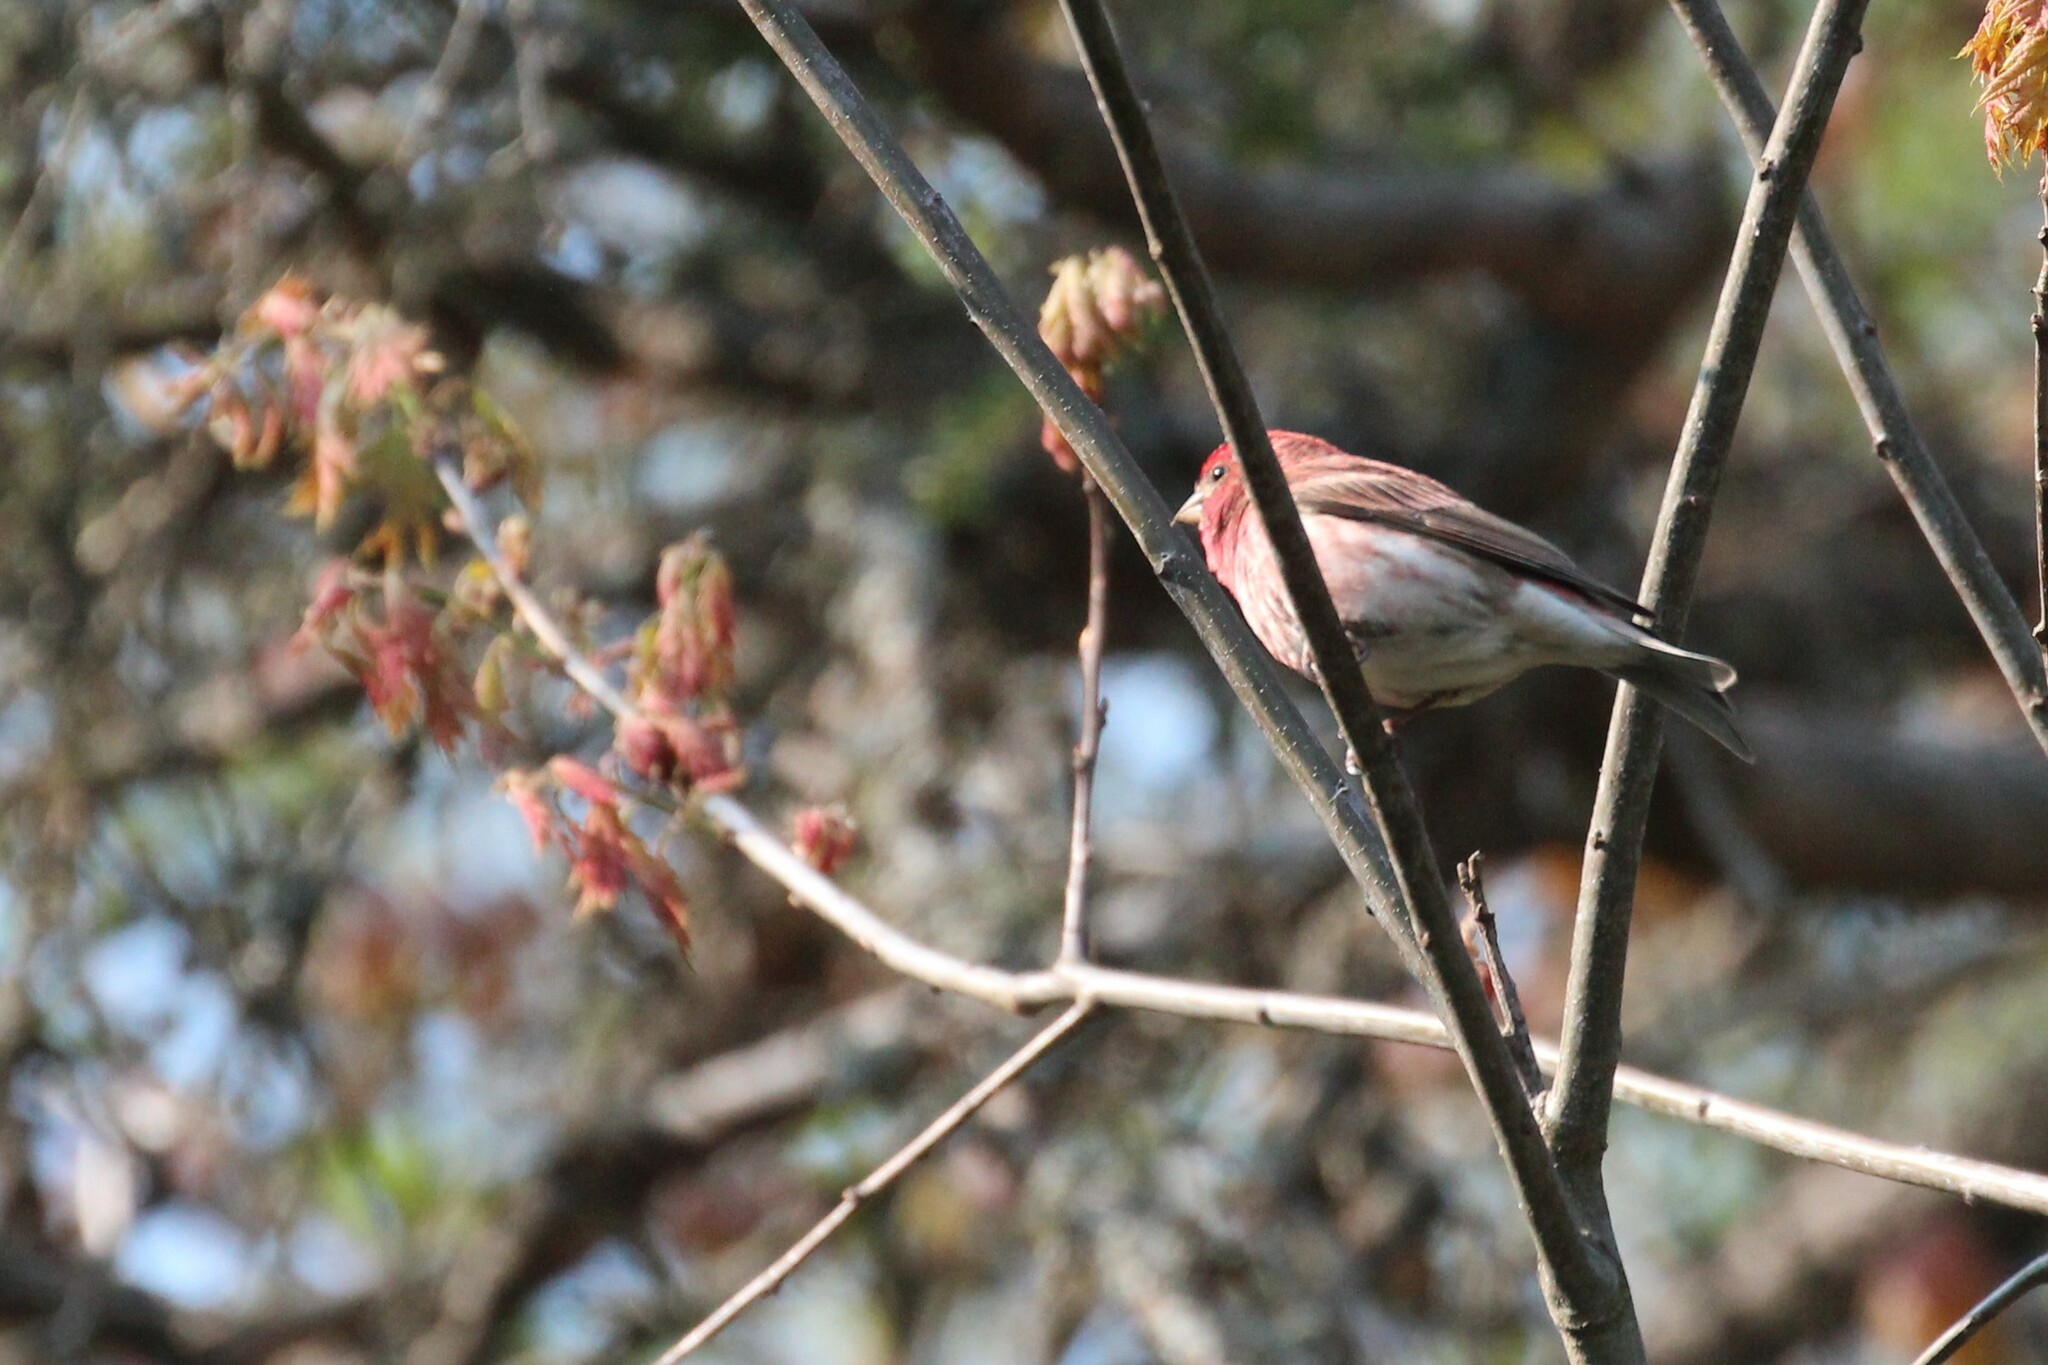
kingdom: Animalia
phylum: Chordata
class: Aves
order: Passeriformes
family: Fringillidae
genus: Haemorhous
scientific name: Haemorhous purpureus
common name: Purple finch
